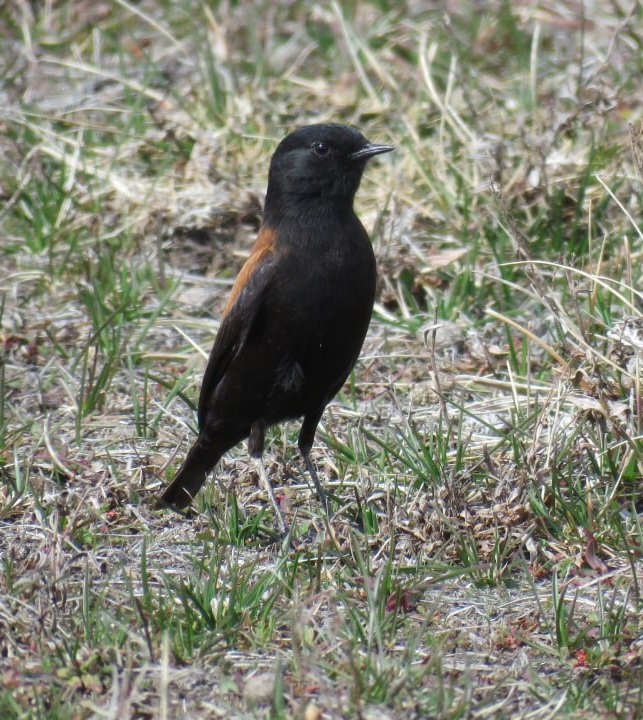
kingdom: Animalia
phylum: Chordata
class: Aves
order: Passeriformes
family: Tyrannidae
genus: Lessonia
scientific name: Lessonia rufa
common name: Austral negrito
